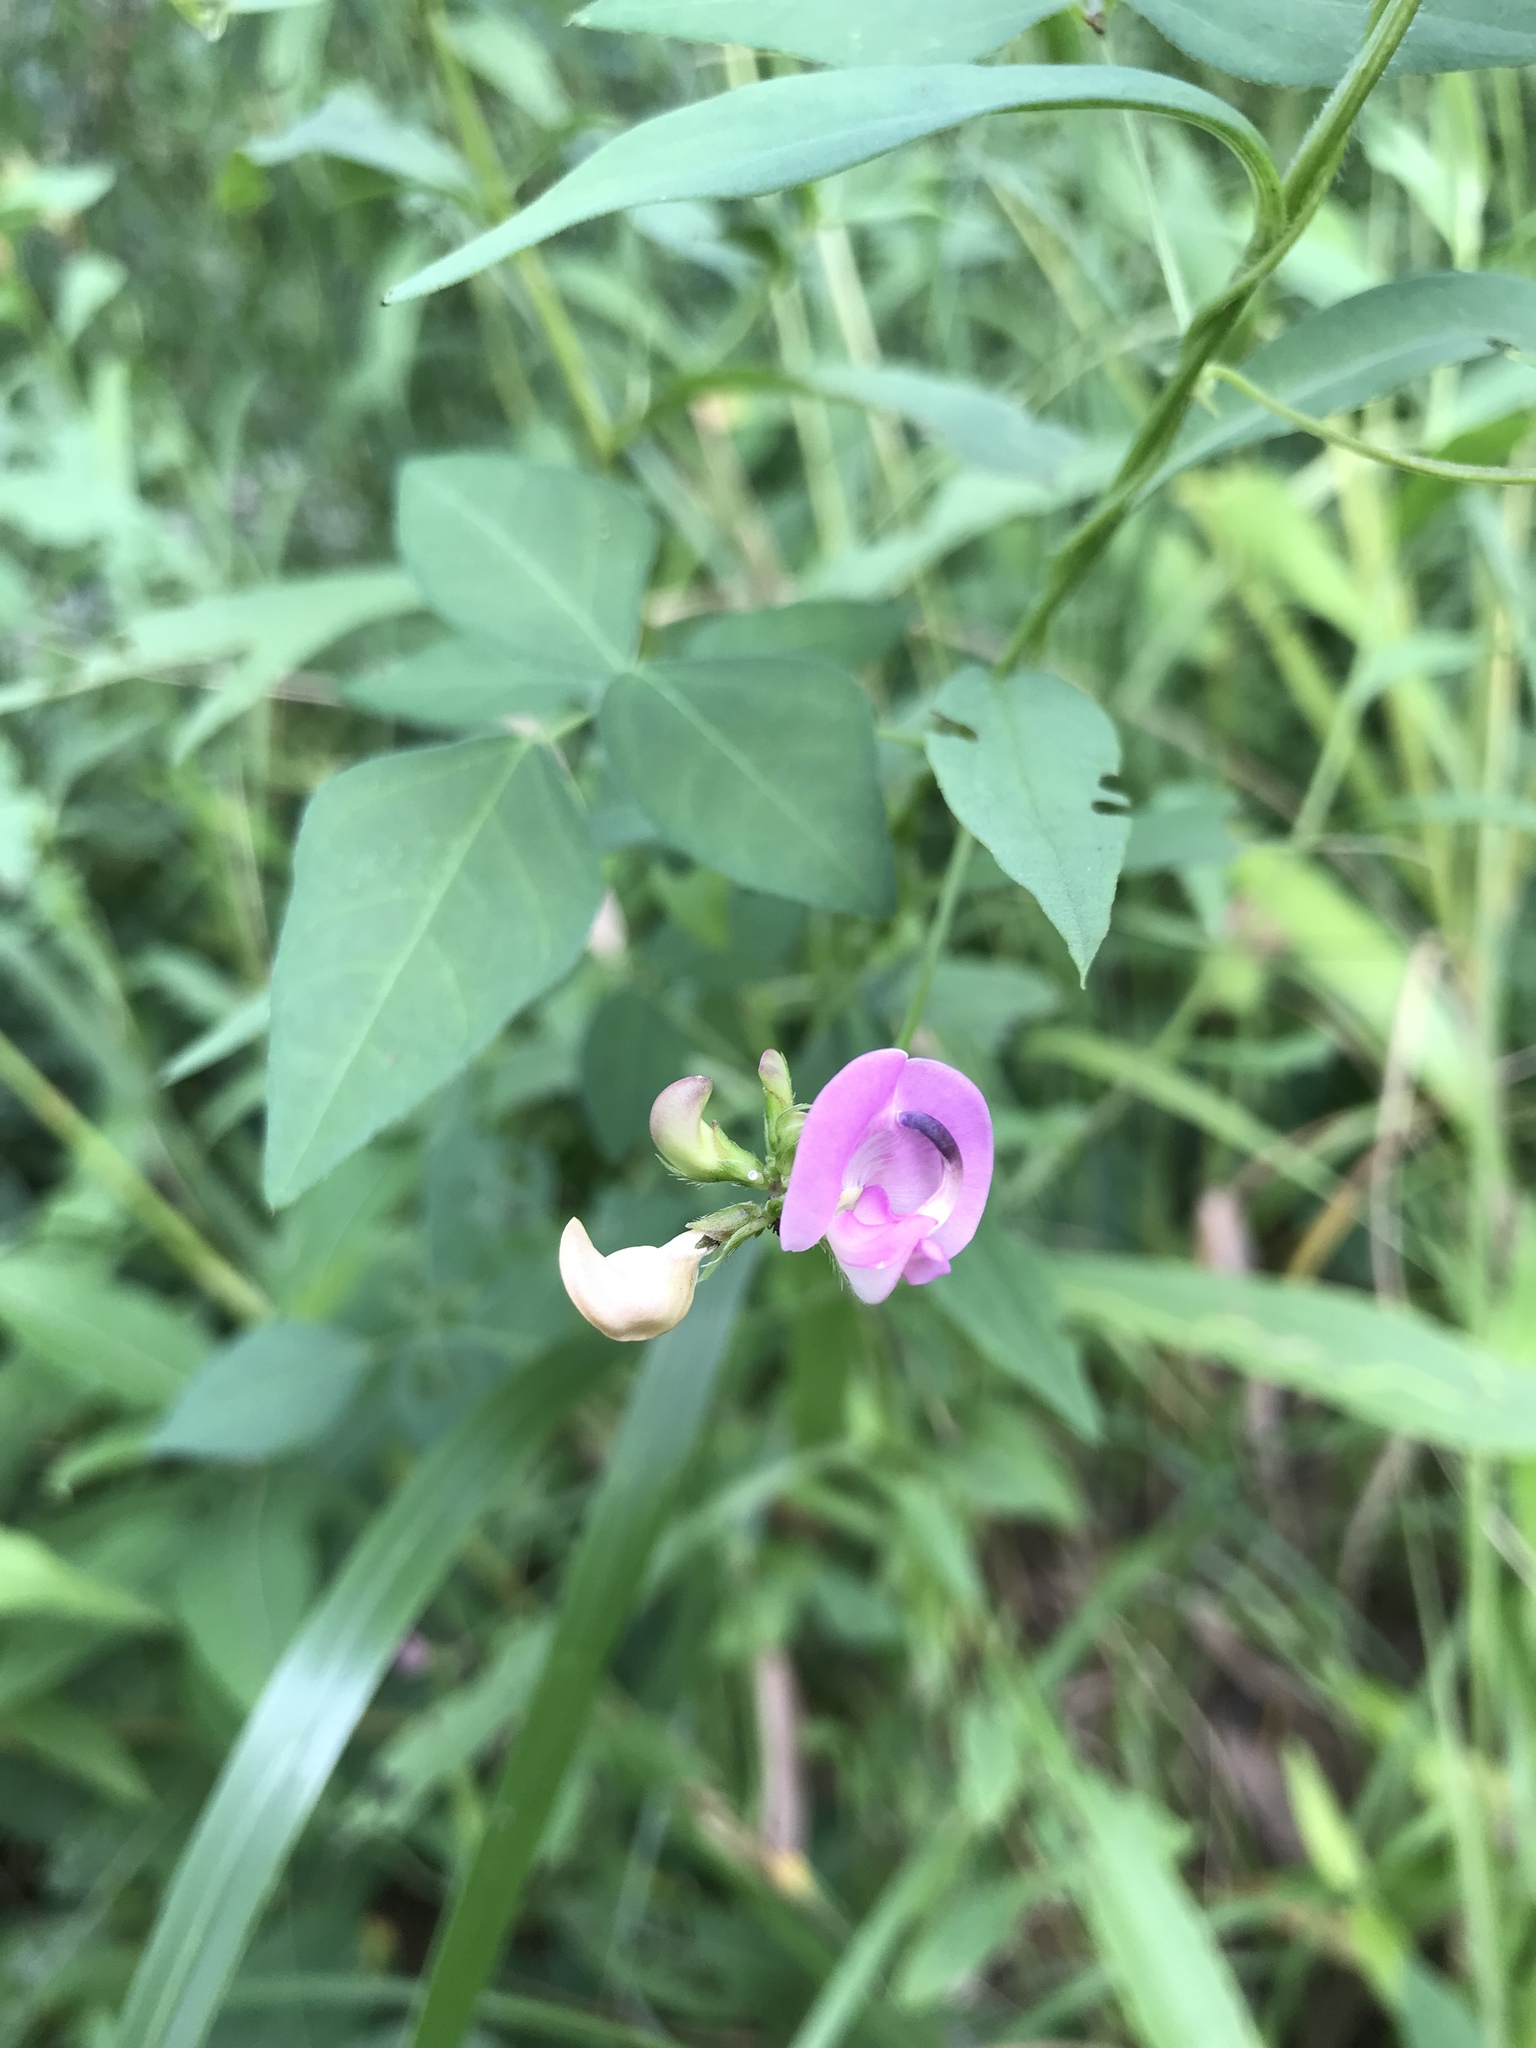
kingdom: Plantae
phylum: Tracheophyta
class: Magnoliopsida
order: Fabales
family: Fabaceae
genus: Strophostyles
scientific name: Strophostyles helvola
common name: Trailing wild bean
